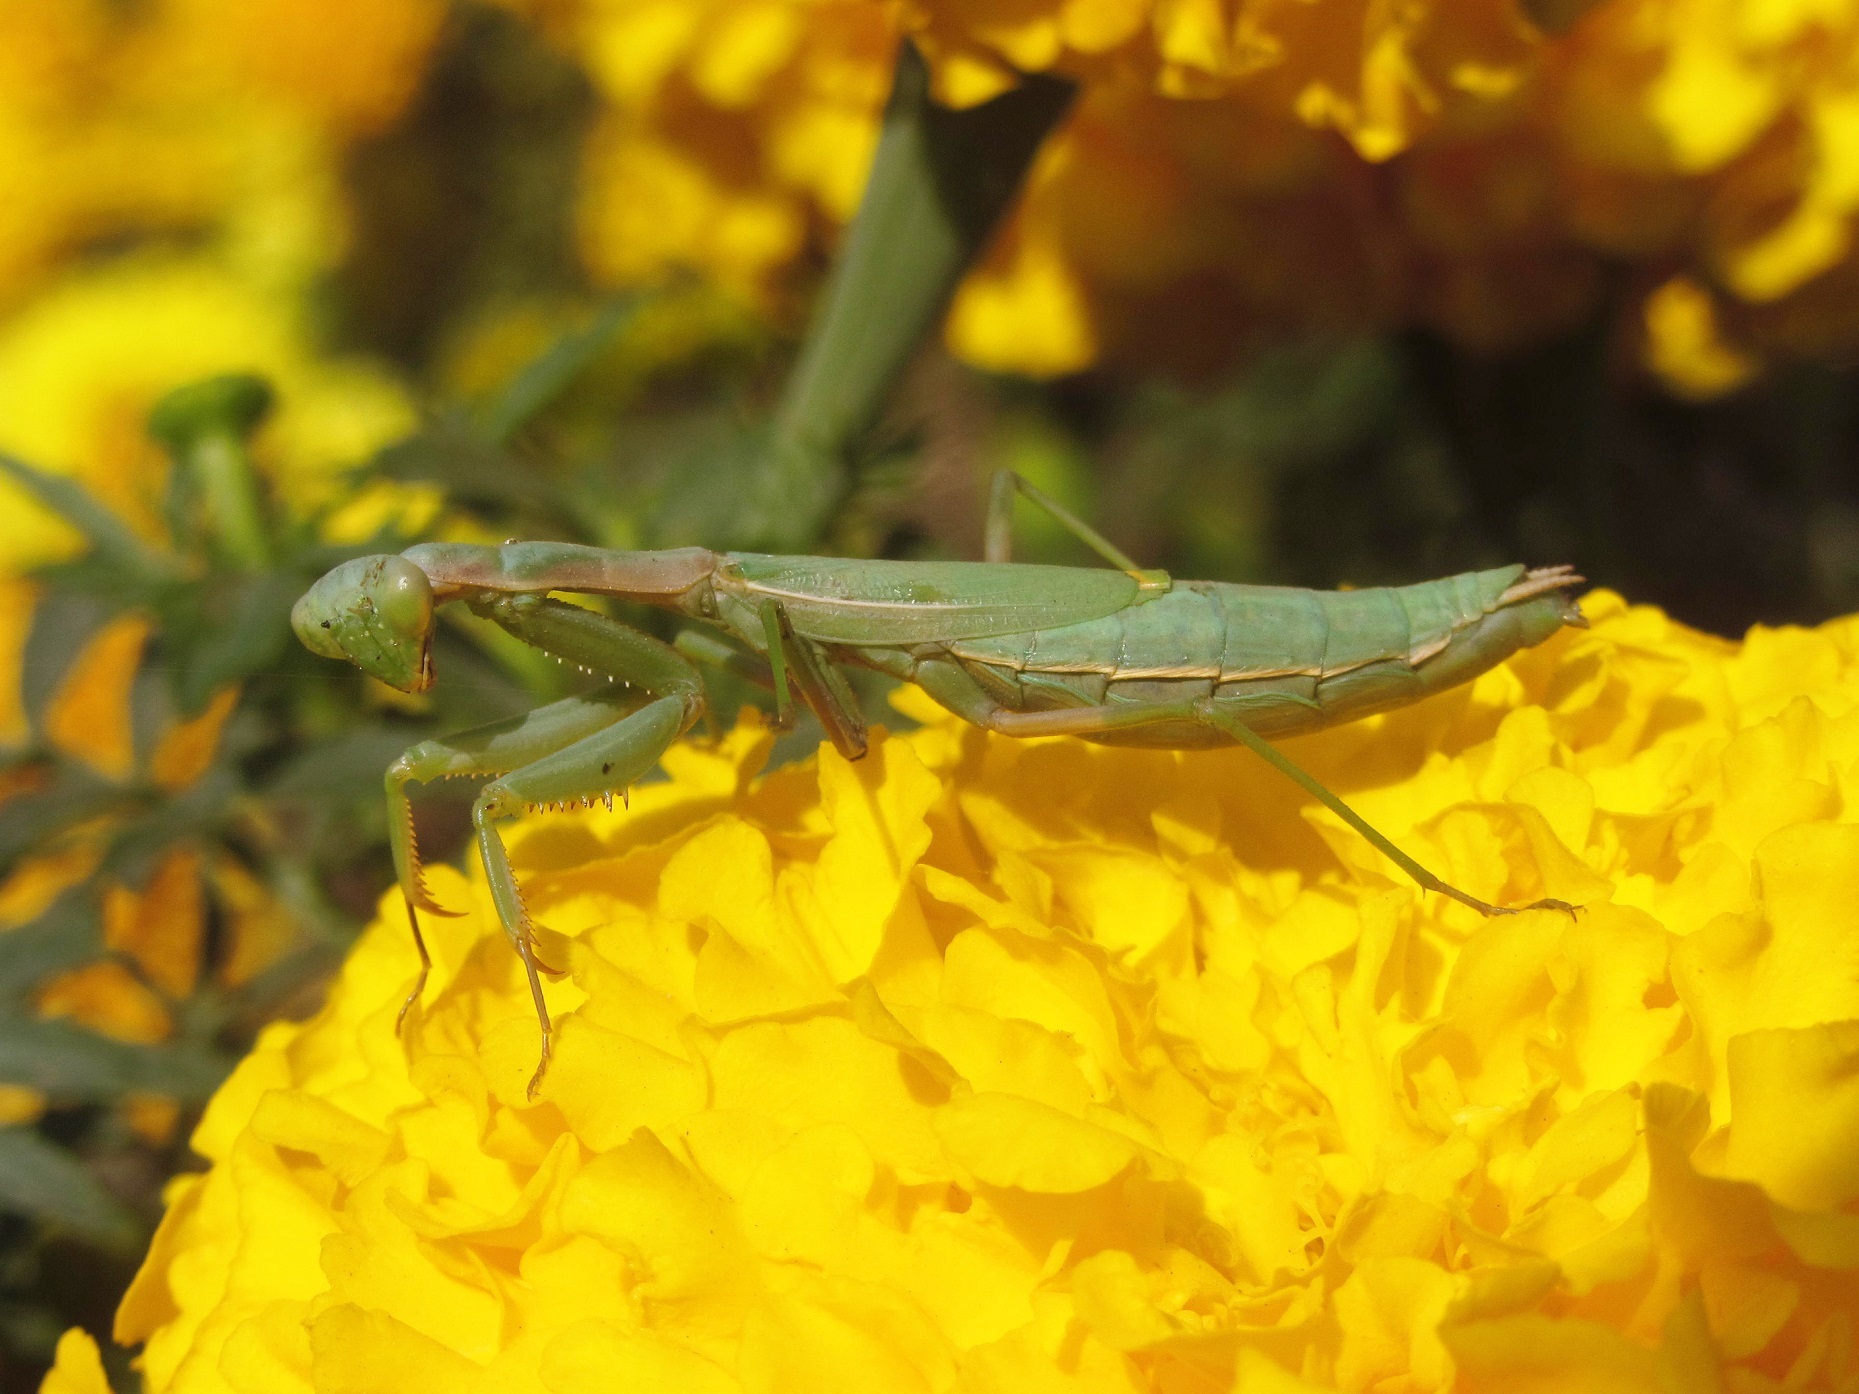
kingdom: Animalia
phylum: Arthropoda
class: Insecta
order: Mantodea
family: Eremiaphilidae
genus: Iris
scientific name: Iris polystictica
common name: Dot-winged mantis
